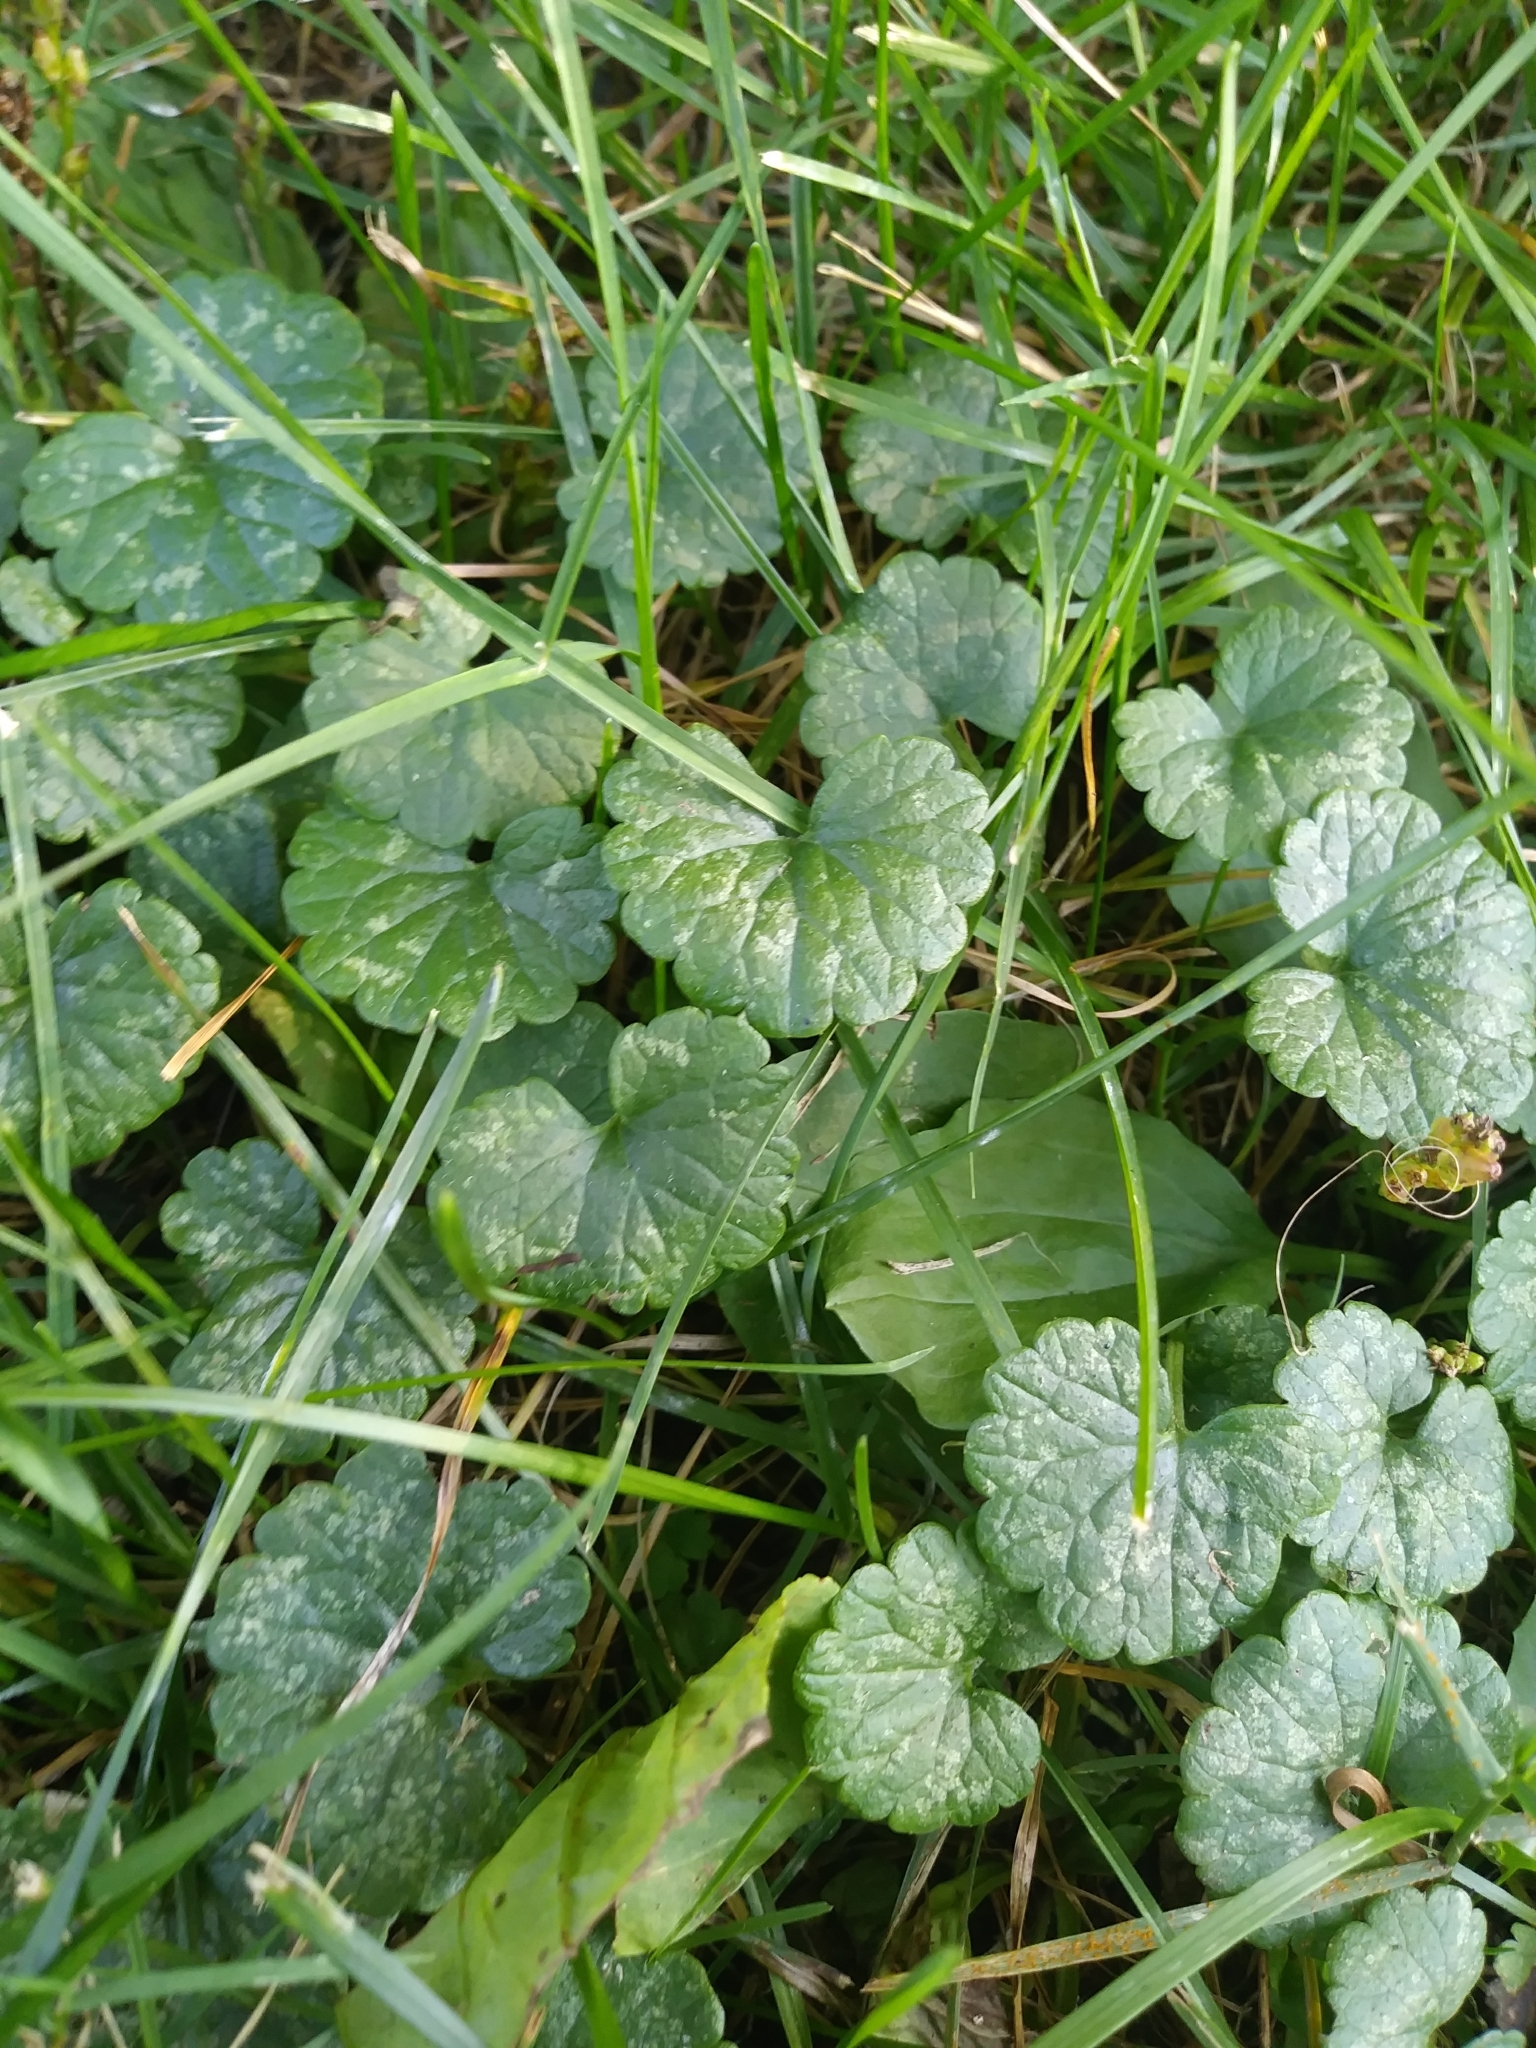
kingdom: Plantae
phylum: Tracheophyta
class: Magnoliopsida
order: Lamiales
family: Lamiaceae
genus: Glechoma
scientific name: Glechoma hederacea
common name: Ground ivy
